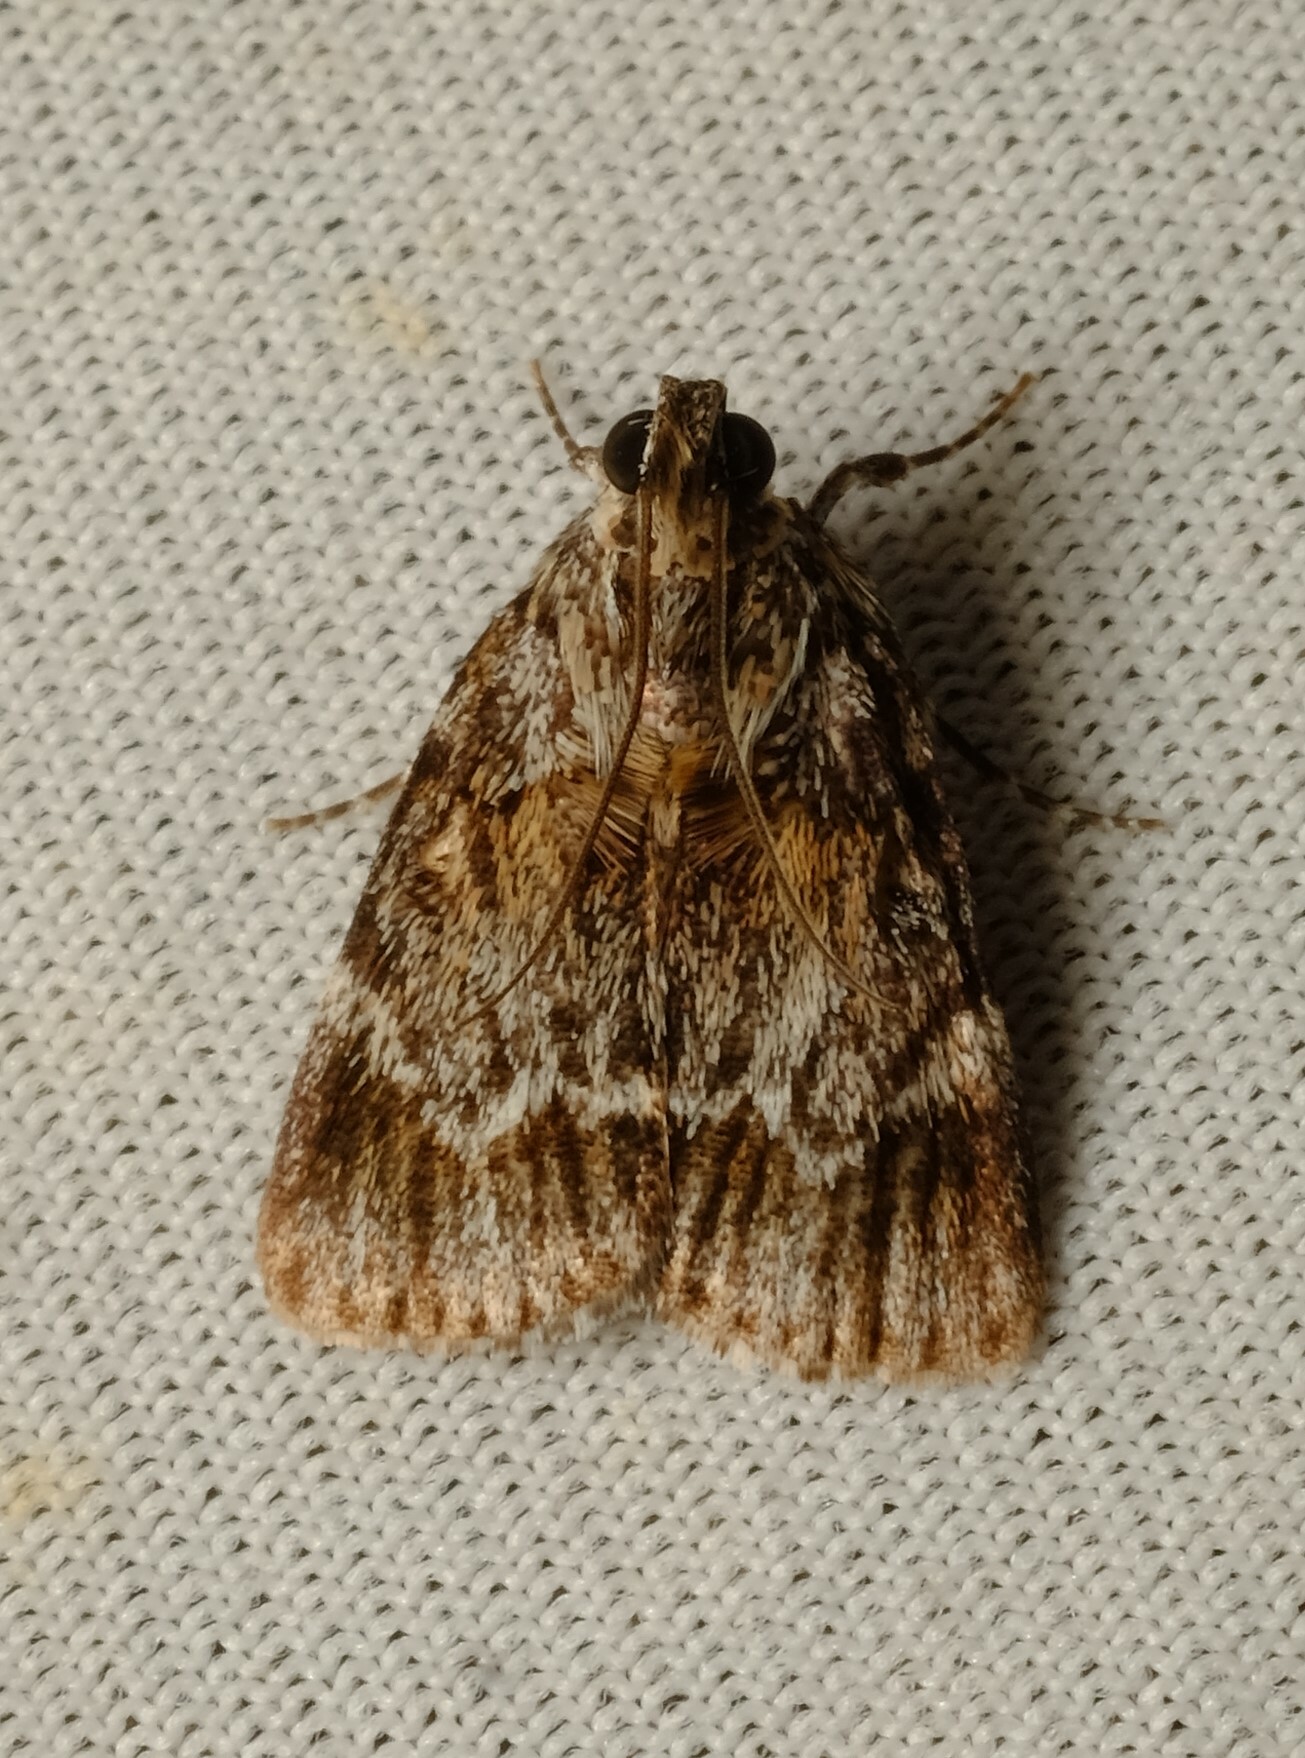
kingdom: Animalia
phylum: Arthropoda
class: Insecta
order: Lepidoptera
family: Pyralidae
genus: Spectrotrota
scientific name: Spectrotrota fimbrialis
